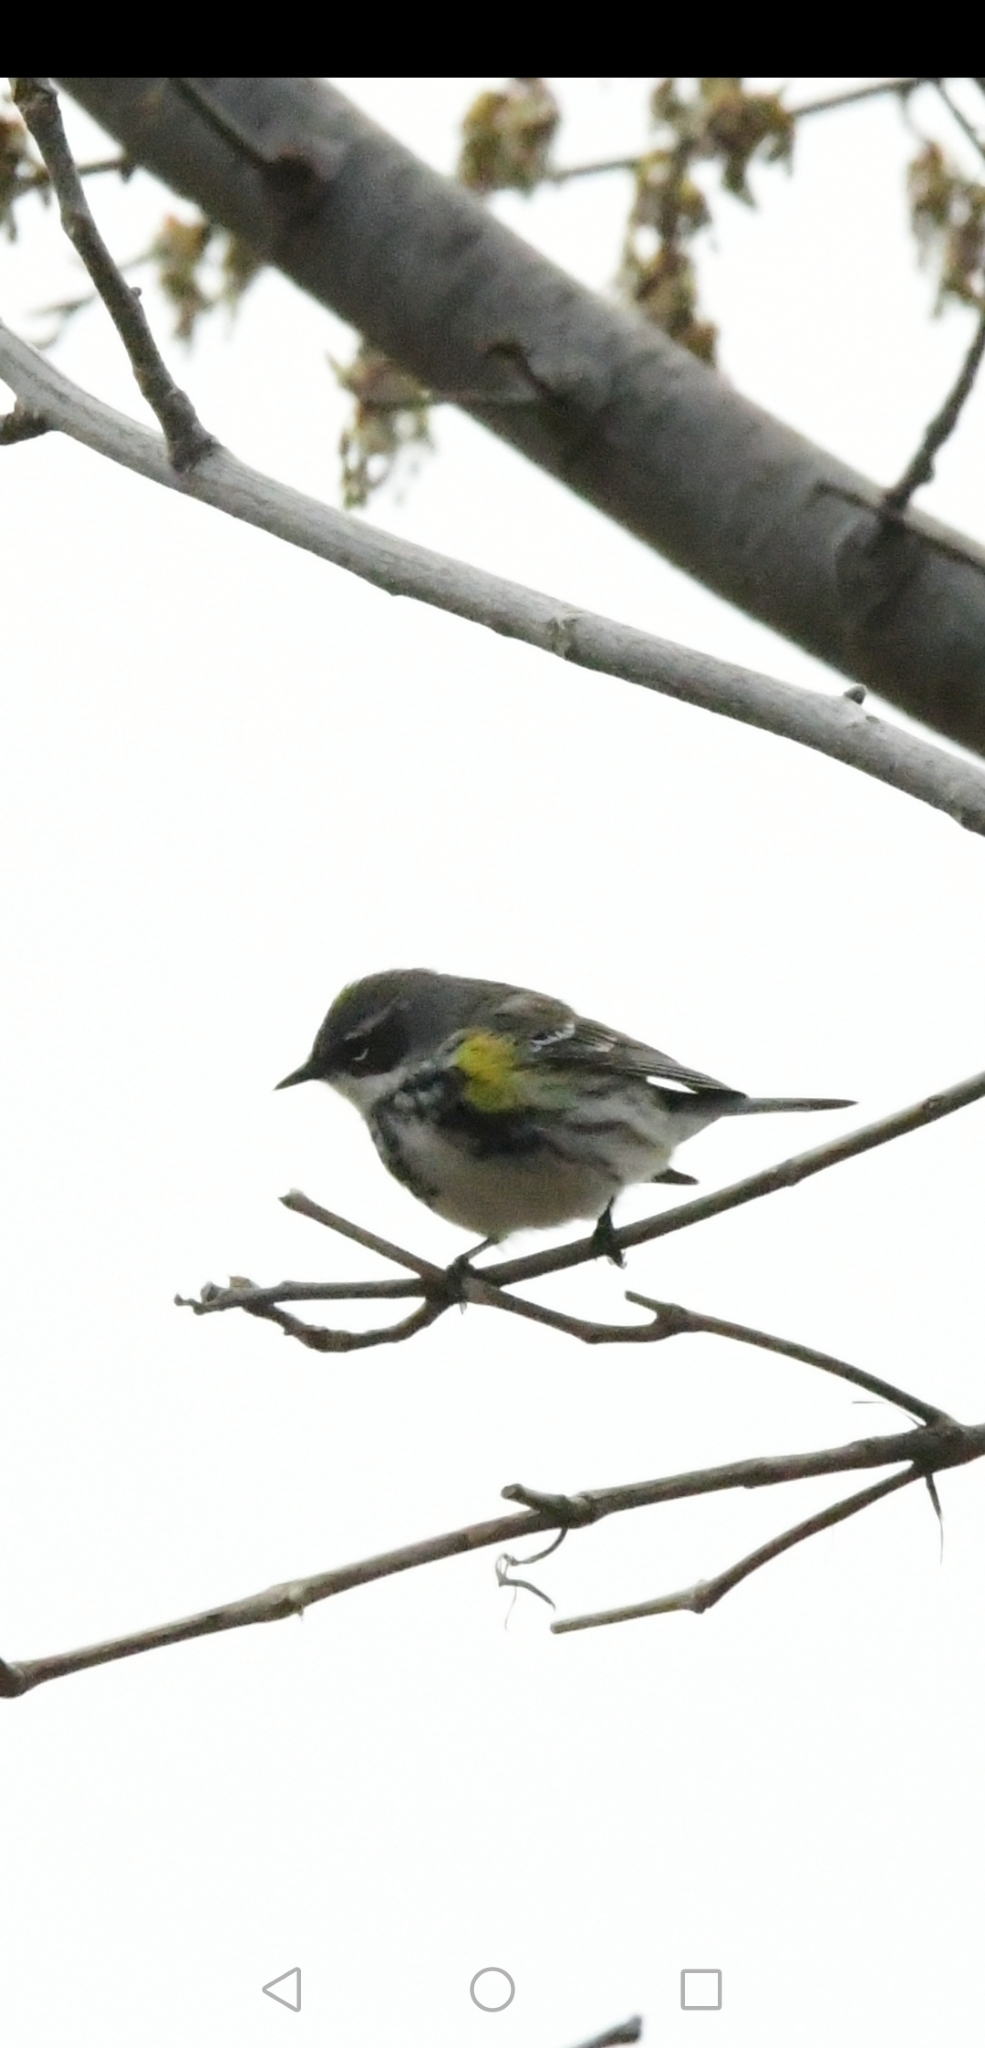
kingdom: Animalia
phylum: Chordata
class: Aves
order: Passeriformes
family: Parulidae
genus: Setophaga
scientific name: Setophaga coronata
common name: Myrtle warbler
